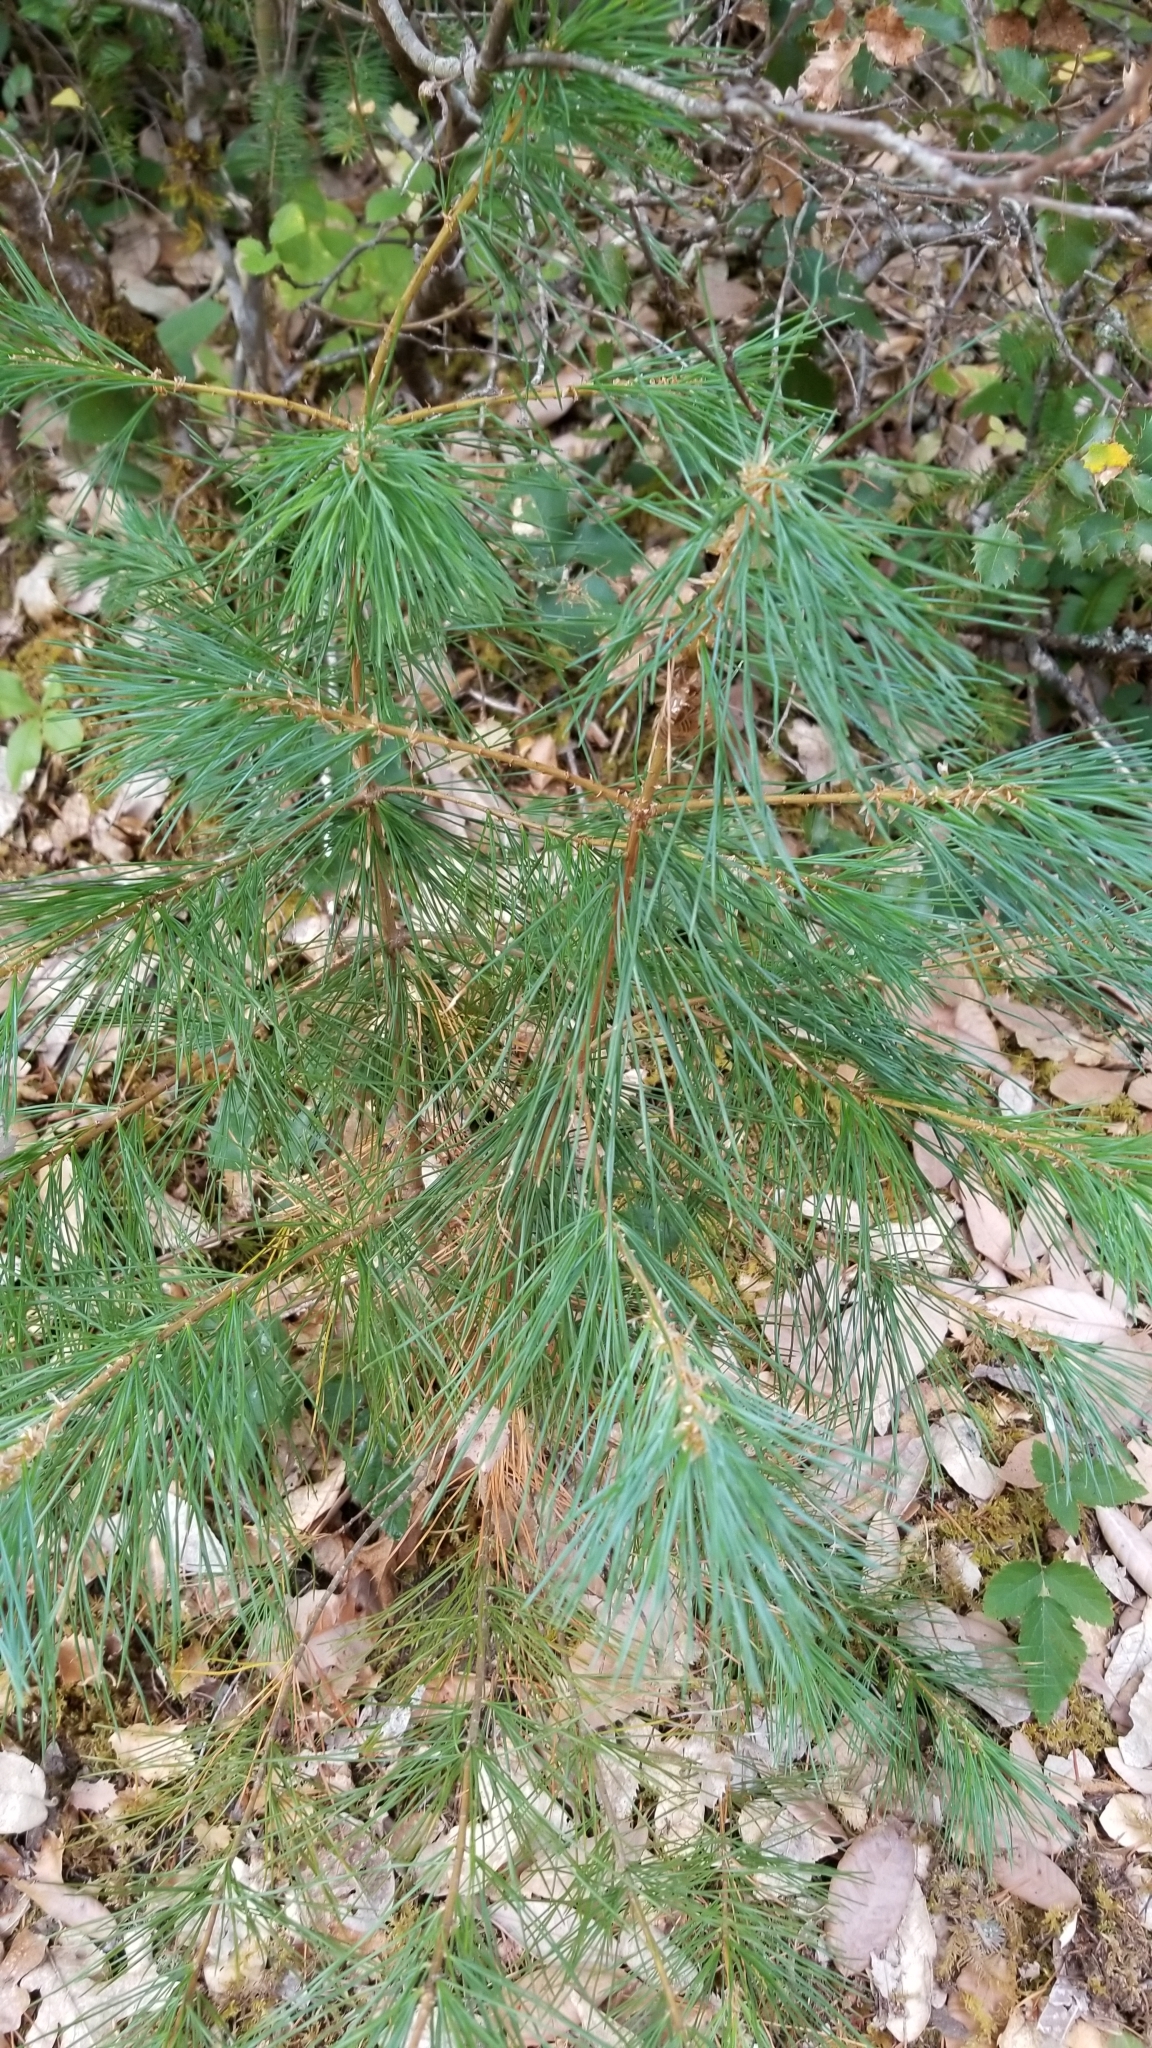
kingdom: Plantae
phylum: Tracheophyta
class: Pinopsida
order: Pinales
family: Pinaceae
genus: Pinus
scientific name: Pinus lambertiana
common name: Sugar pine
